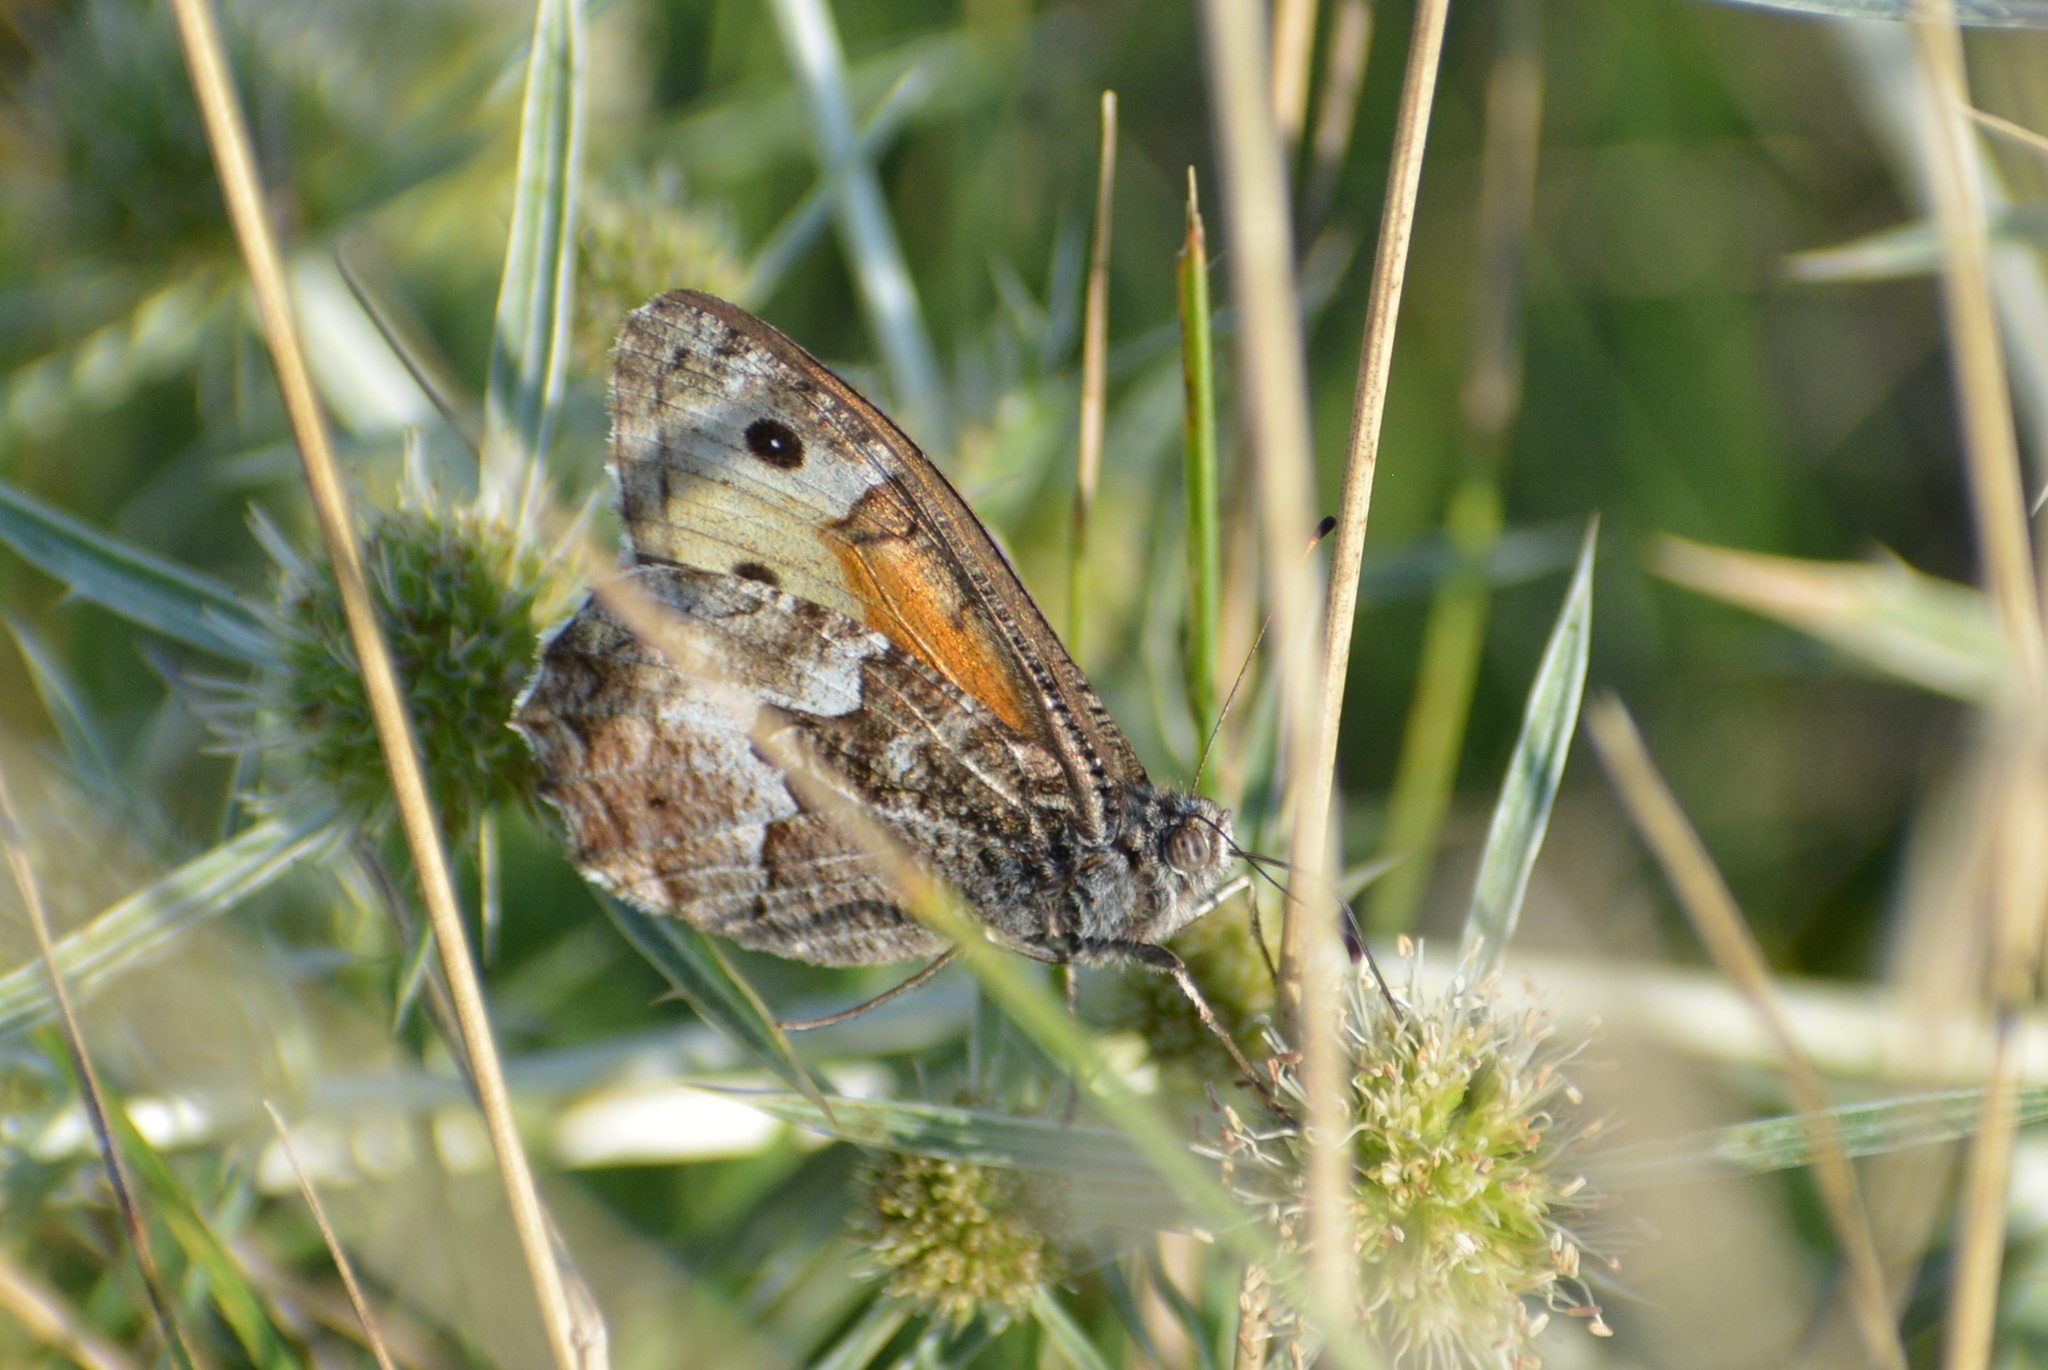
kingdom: Animalia
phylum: Arthropoda
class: Insecta
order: Lepidoptera
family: Nymphalidae
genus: Hipparchia
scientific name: Hipparchia semele
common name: Grayling
